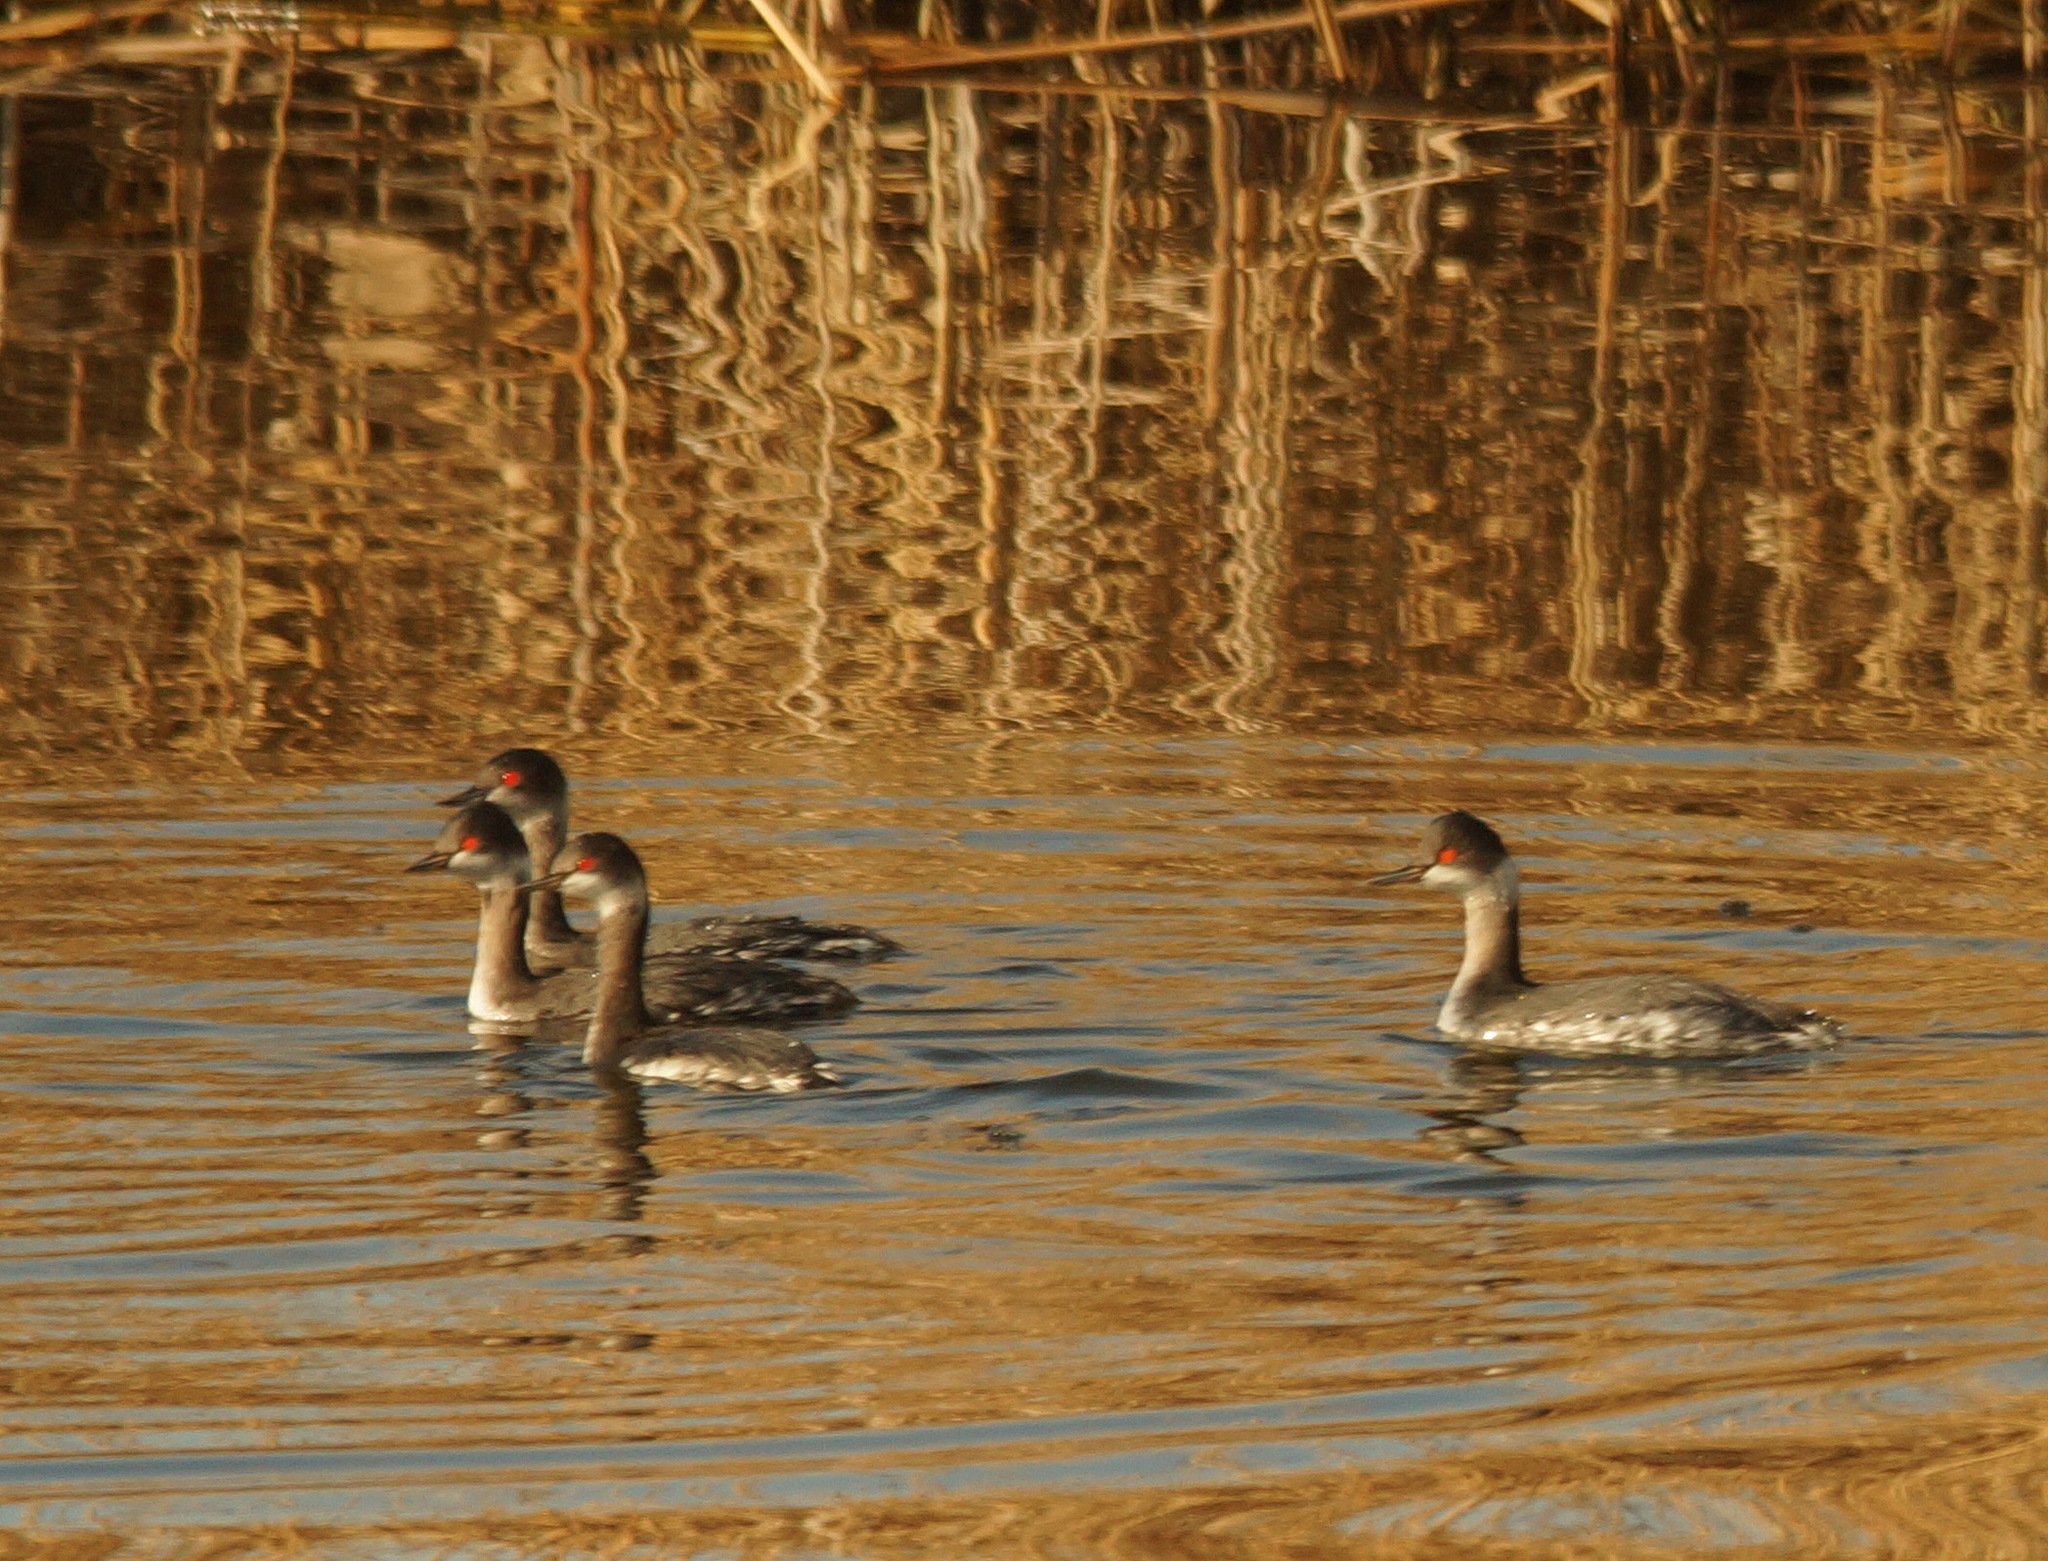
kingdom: Animalia
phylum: Chordata
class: Aves
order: Podicipediformes
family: Podicipedidae
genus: Podiceps
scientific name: Podiceps nigricollis
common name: Black-necked grebe
